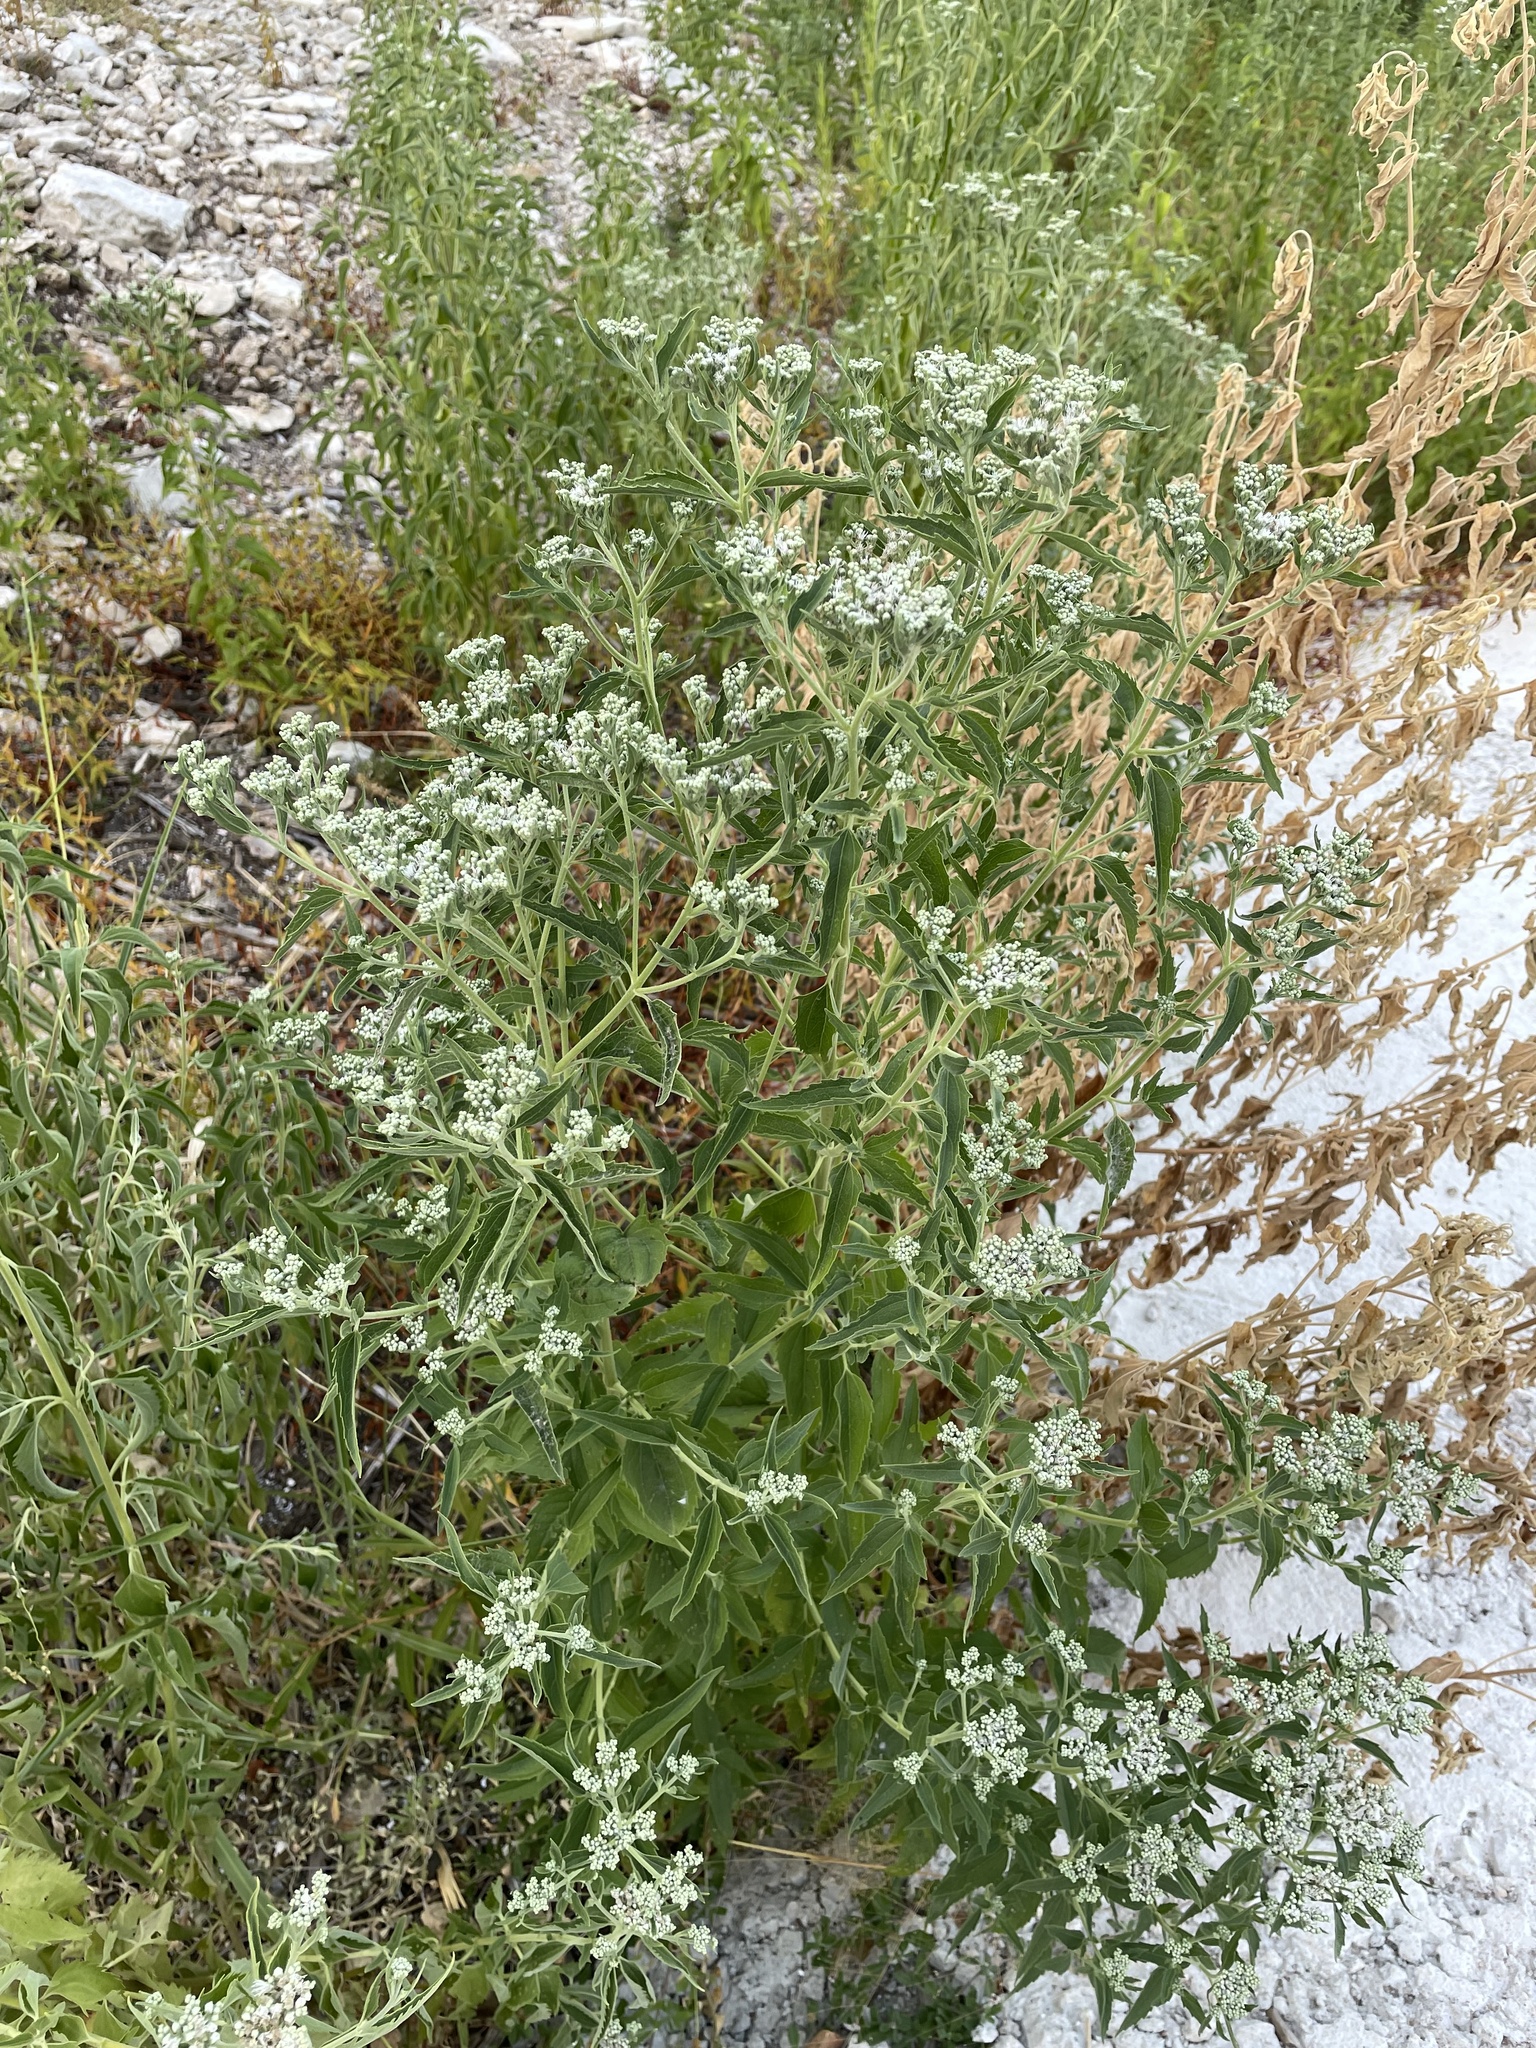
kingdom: Plantae
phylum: Tracheophyta
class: Magnoliopsida
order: Asterales
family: Asteraceae
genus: Eupatorium
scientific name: Eupatorium serotinum
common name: Late boneset
